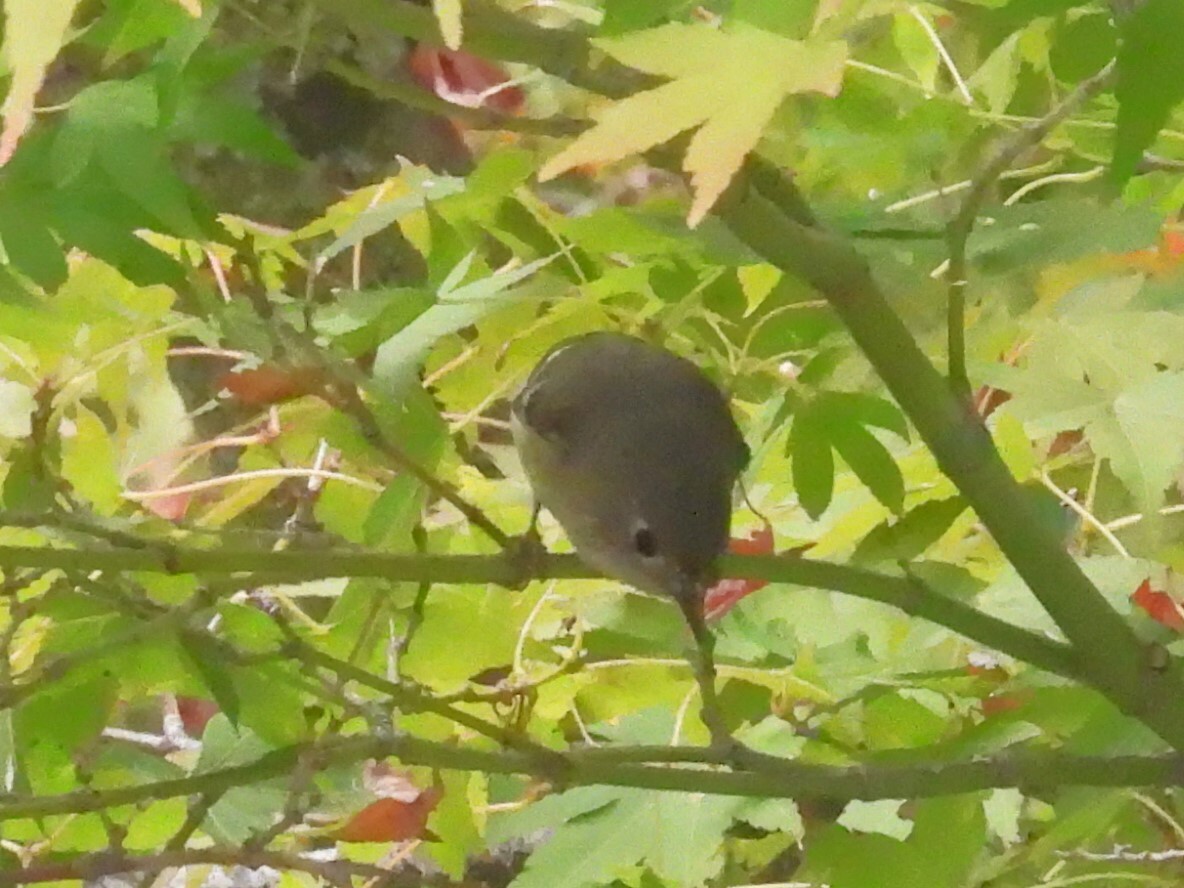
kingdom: Animalia
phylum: Chordata
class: Aves
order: Passeriformes
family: Regulidae
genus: Regulus
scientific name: Regulus calendula
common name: Ruby-crowned kinglet
